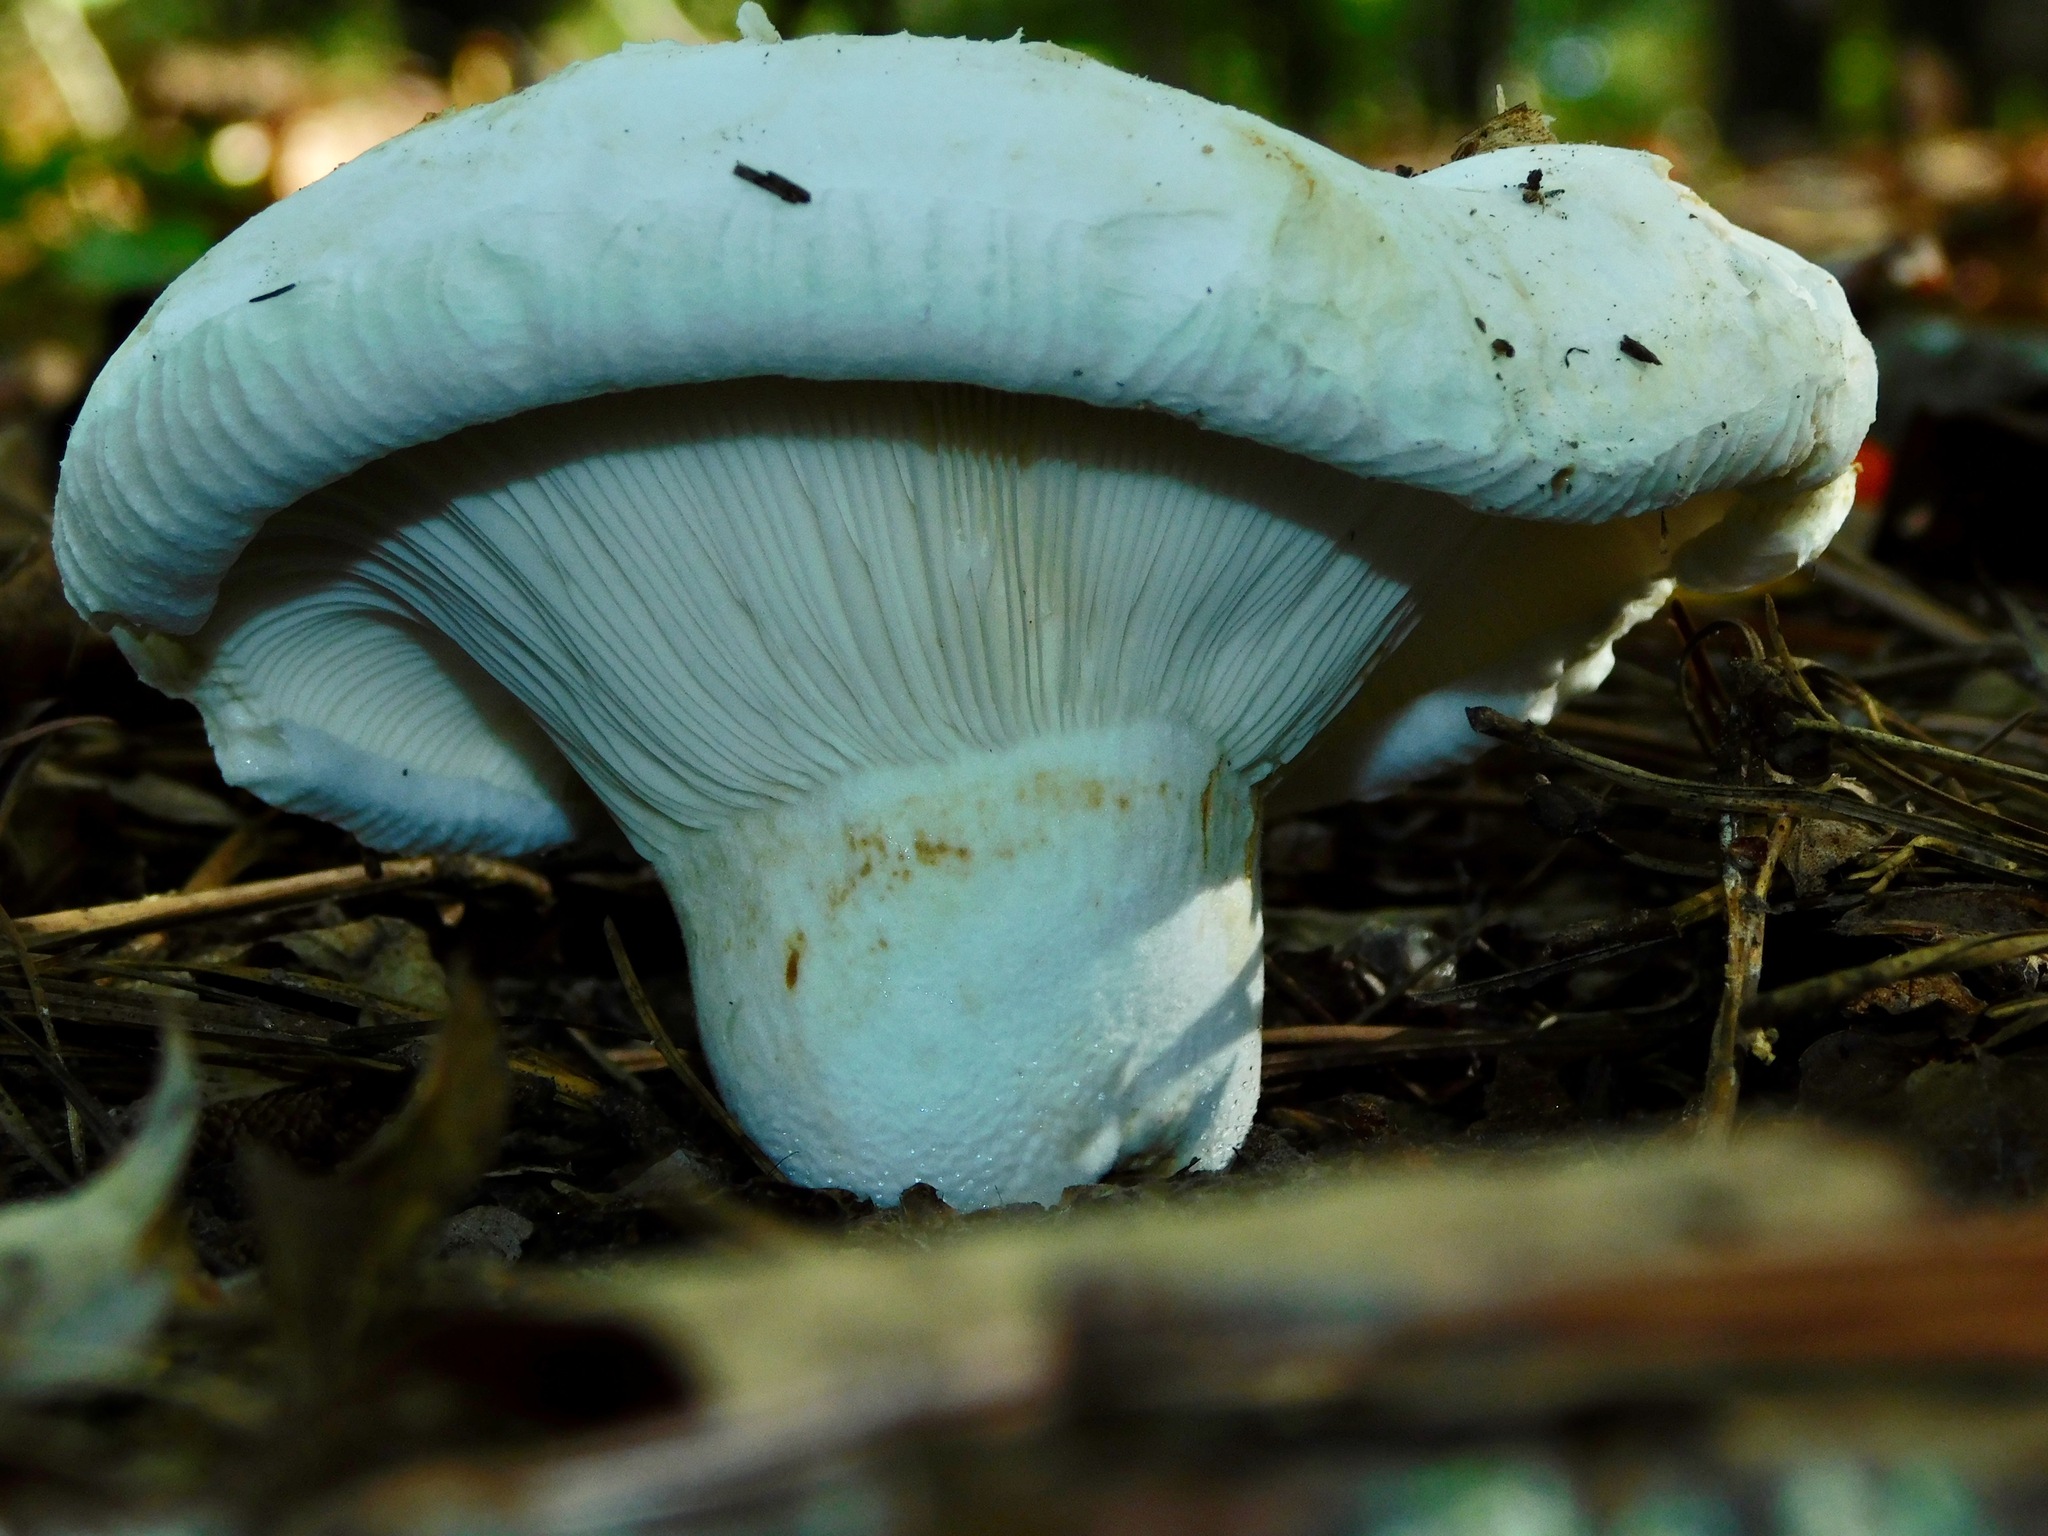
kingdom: Fungi
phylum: Basidiomycota
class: Agaricomycetes
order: Russulales
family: Russulaceae
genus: Lactifluus
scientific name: Lactifluus
